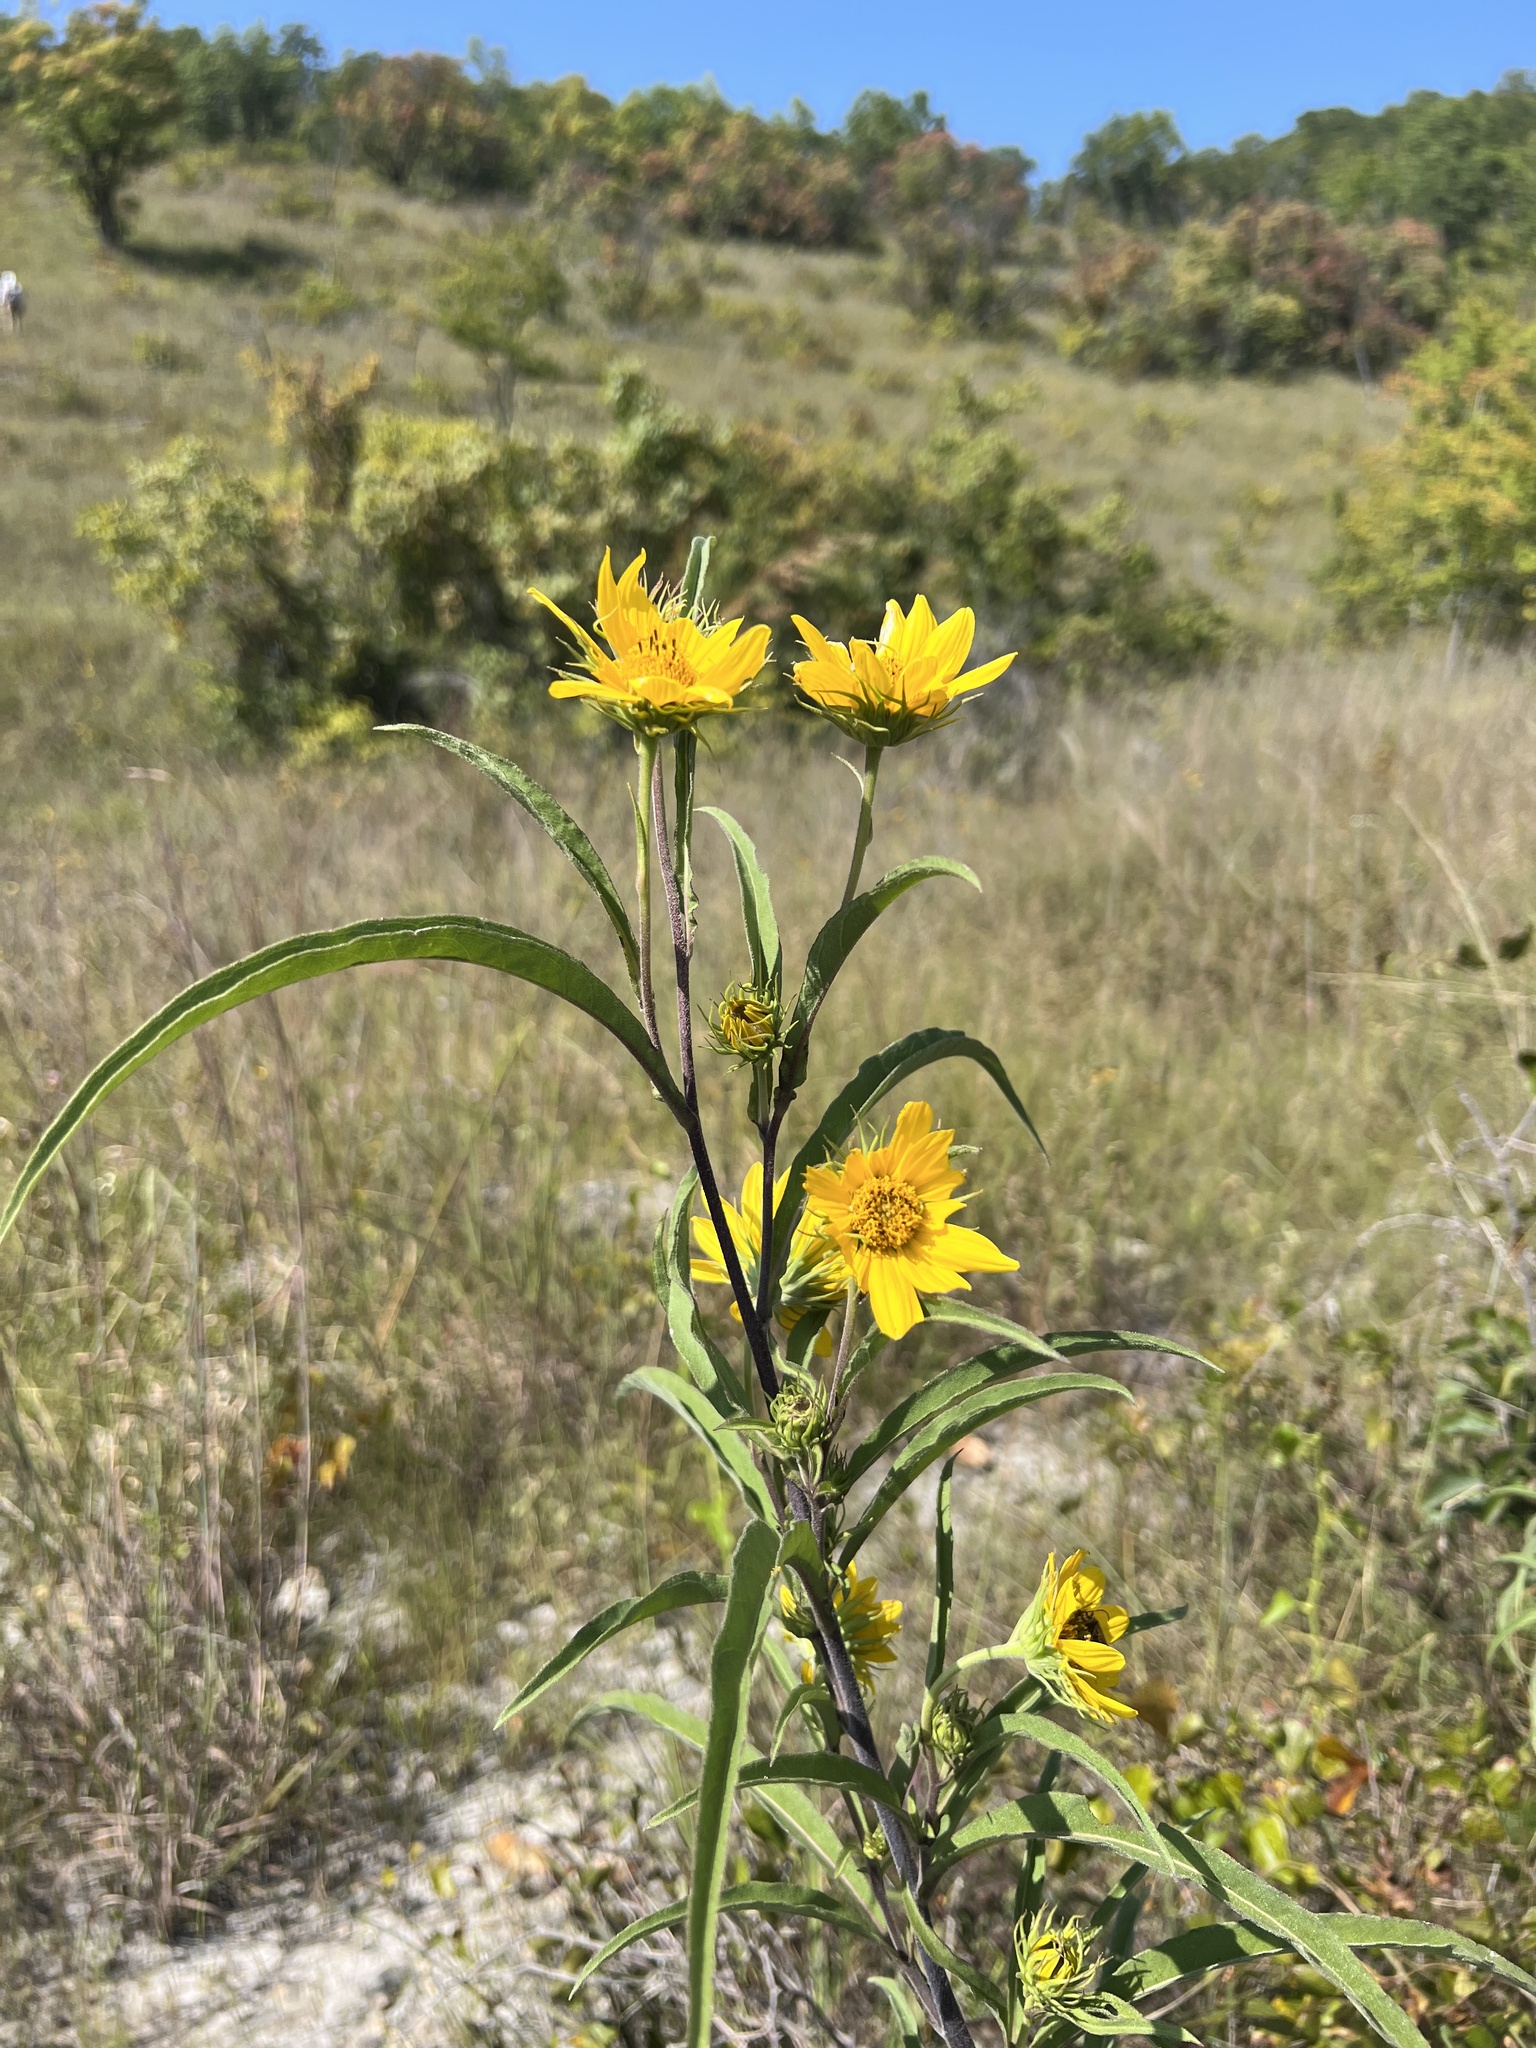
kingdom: Plantae
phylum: Tracheophyta
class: Magnoliopsida
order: Asterales
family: Asteraceae
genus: Helianthus
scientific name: Helianthus maximiliani
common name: Maximilian's sunflower
